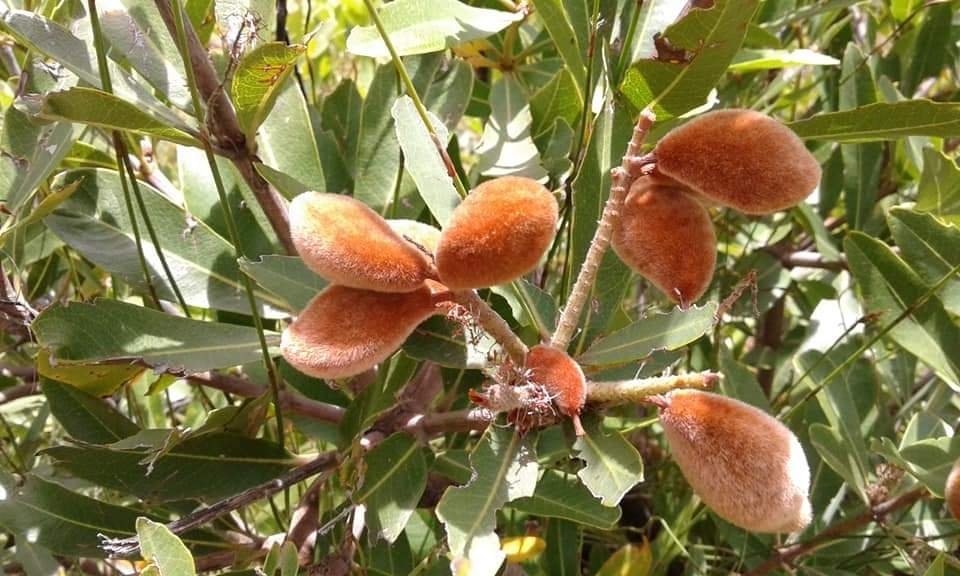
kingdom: Plantae
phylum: Tracheophyta
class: Magnoliopsida
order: Proteales
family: Proteaceae
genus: Brabejum
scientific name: Brabejum stellatifolium
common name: Wild almond
